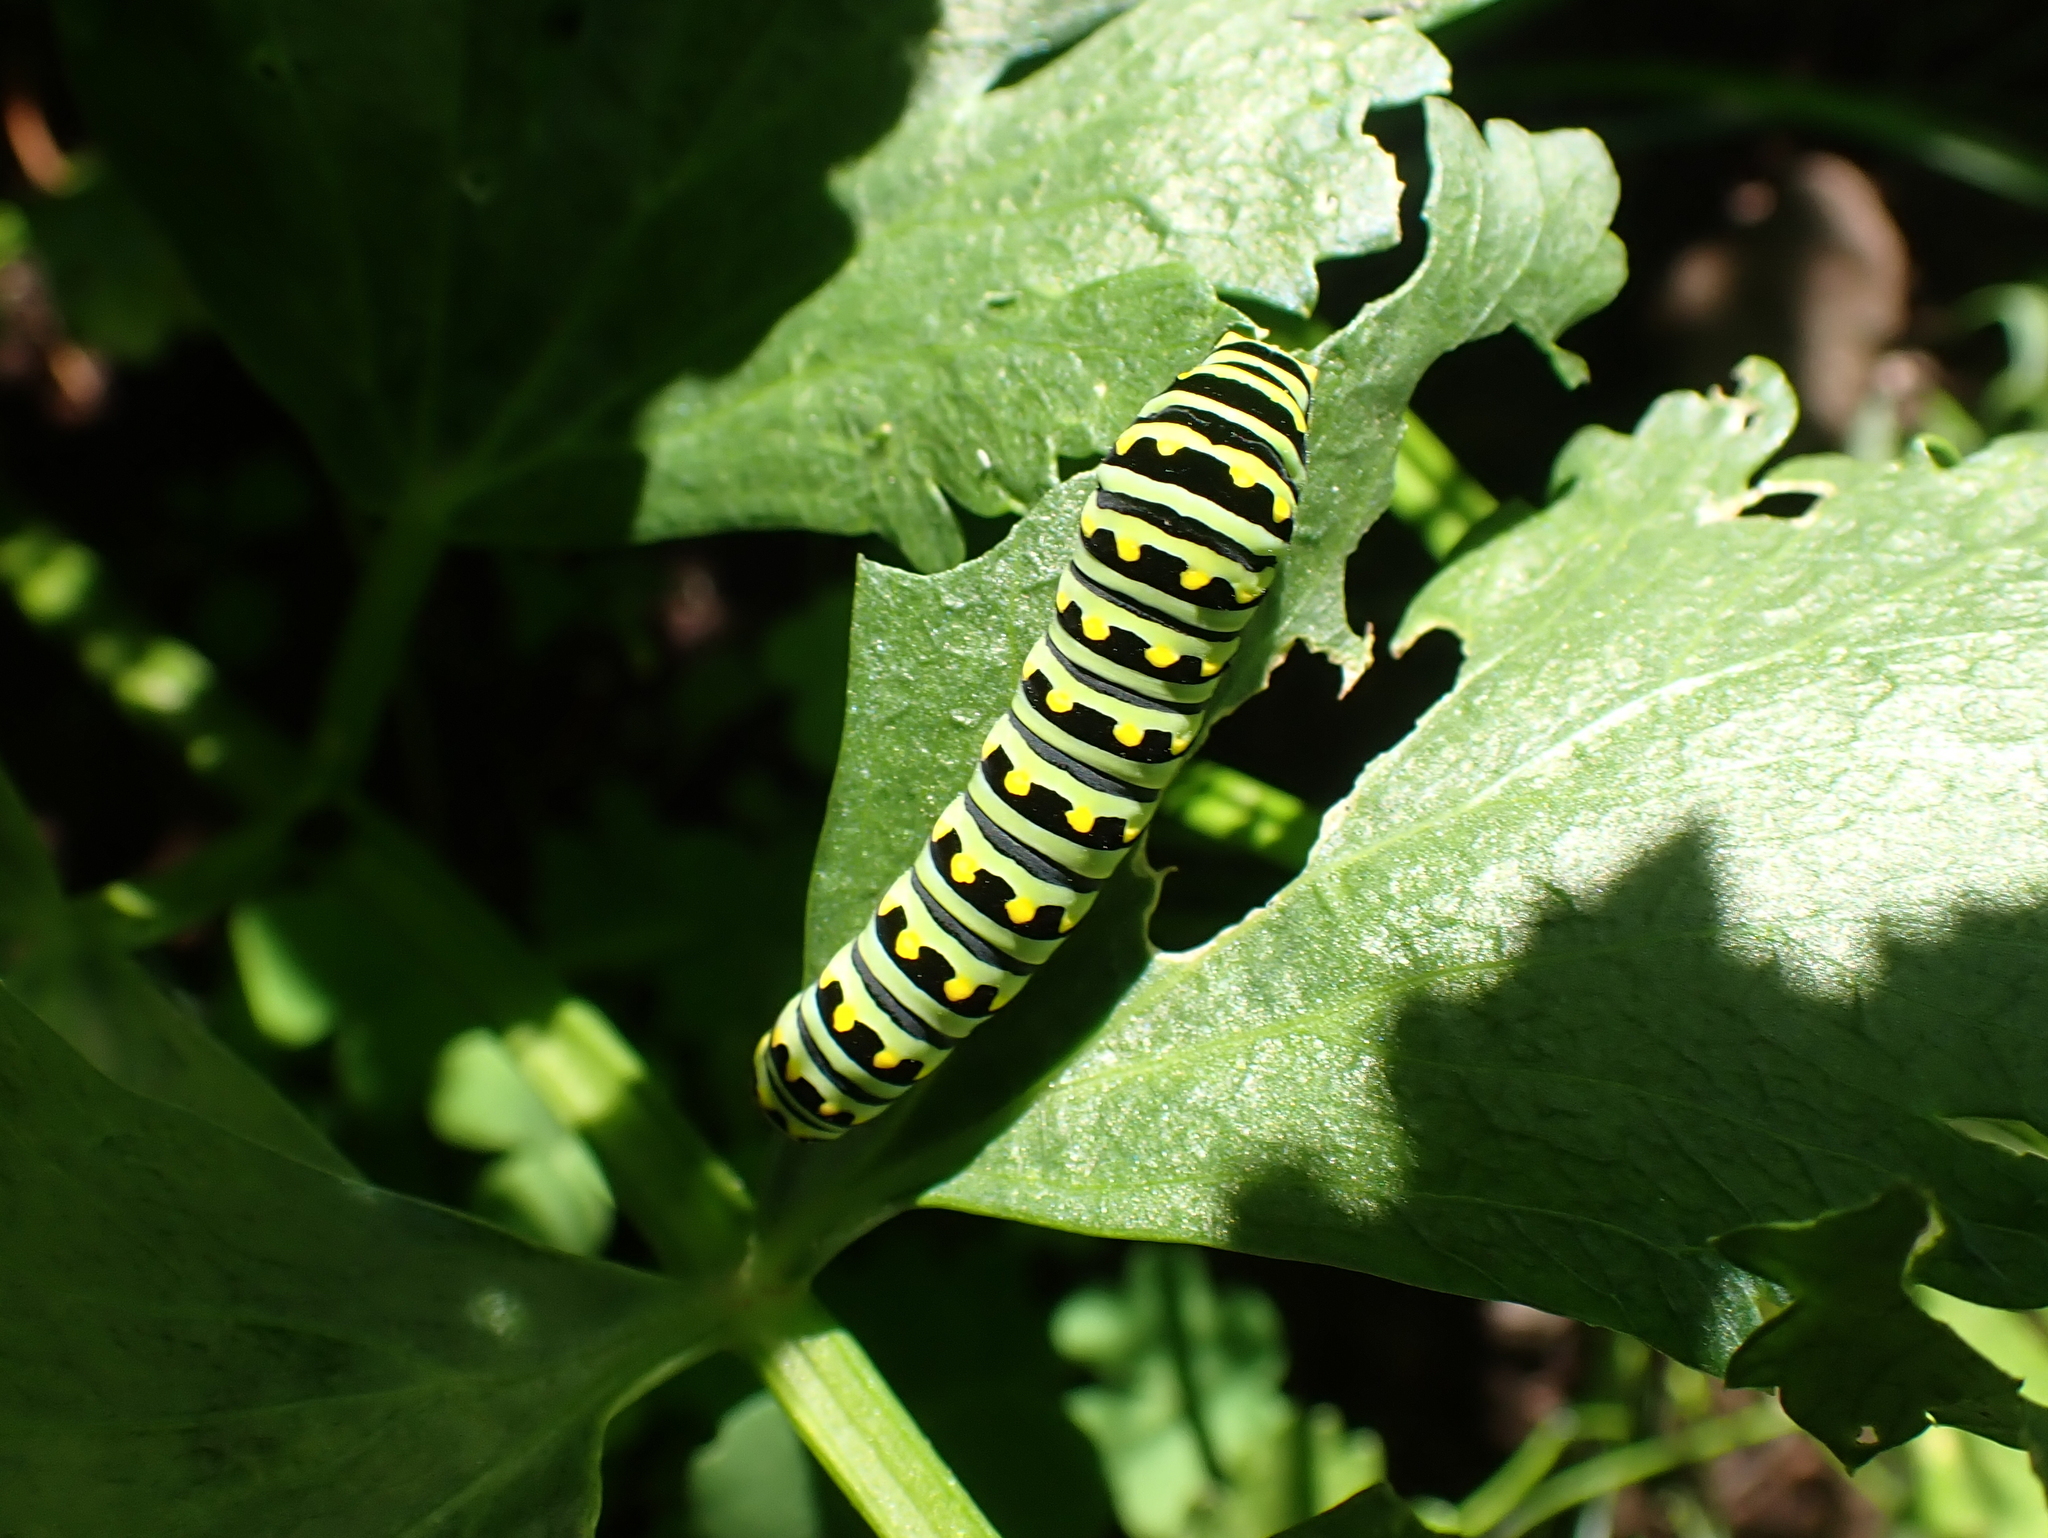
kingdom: Animalia
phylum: Arthropoda
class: Insecta
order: Lepidoptera
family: Papilionidae
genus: Papilio
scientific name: Papilio polyxenes
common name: Black swallowtail
